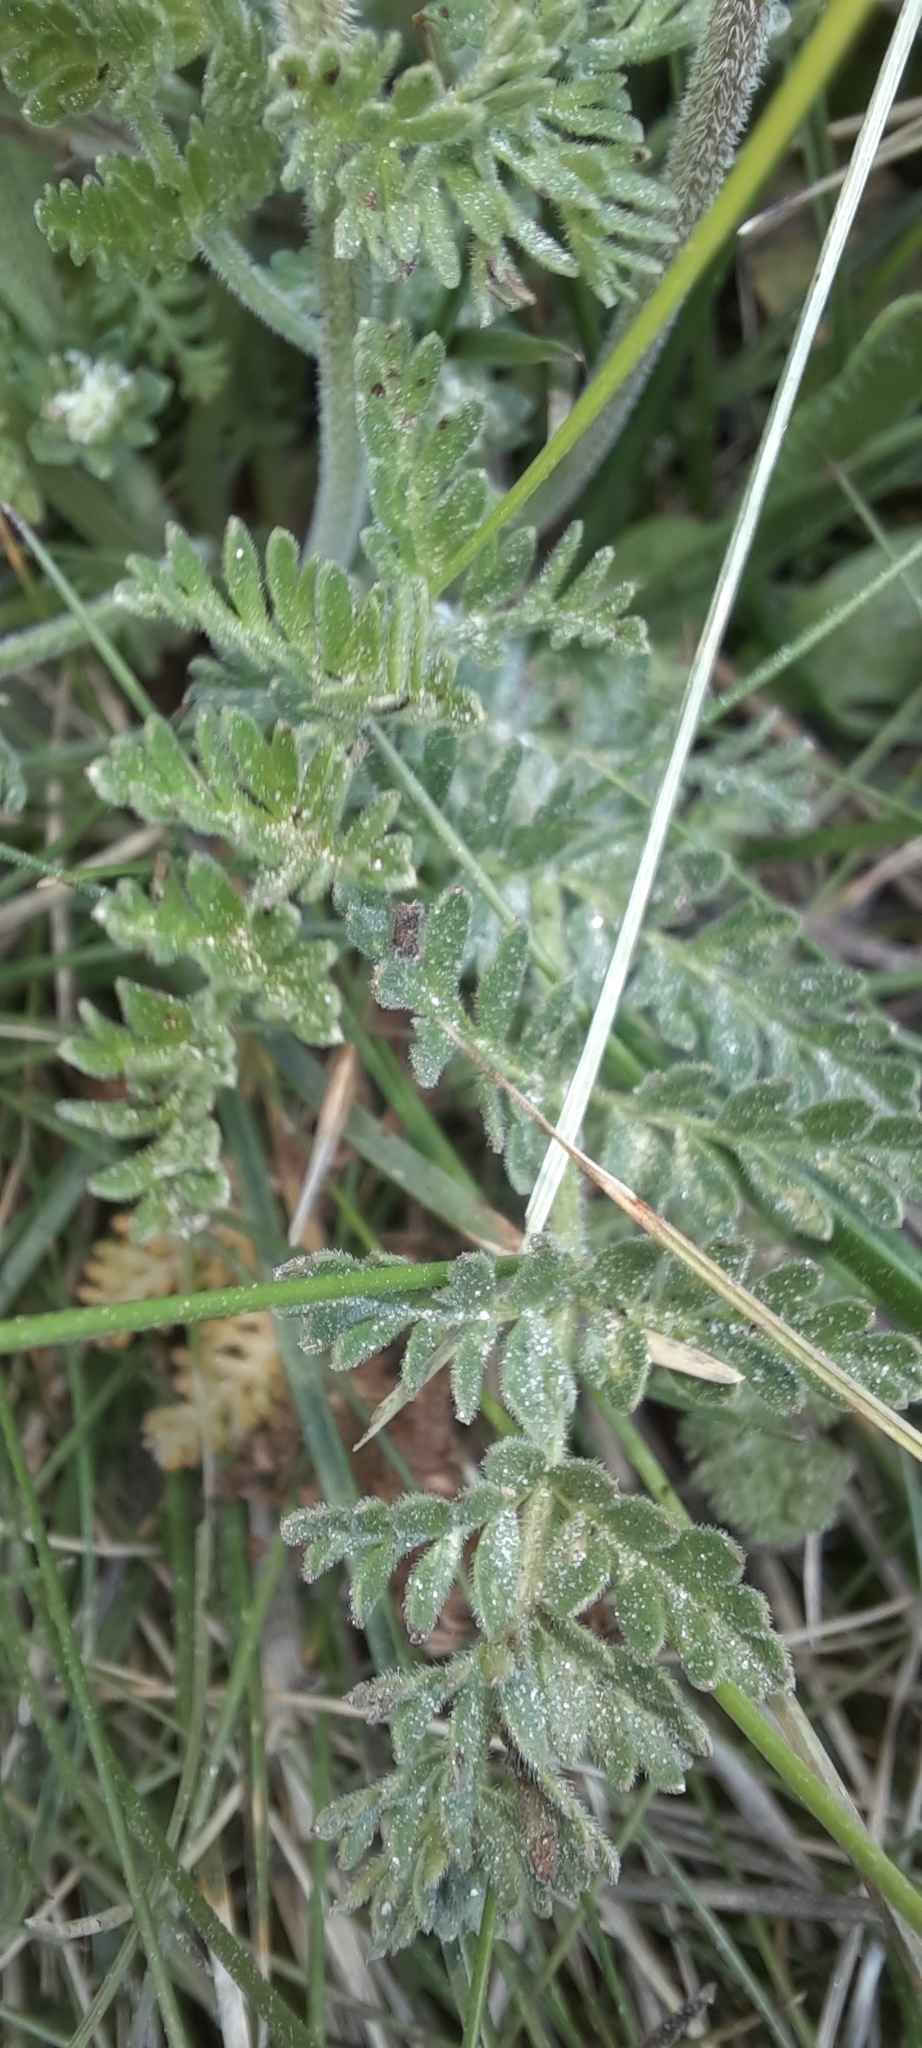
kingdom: Plantae
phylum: Tracheophyta
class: Magnoliopsida
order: Apiales
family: Apiaceae
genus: Chaerophyllum
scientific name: Chaerophyllum eriopodum
